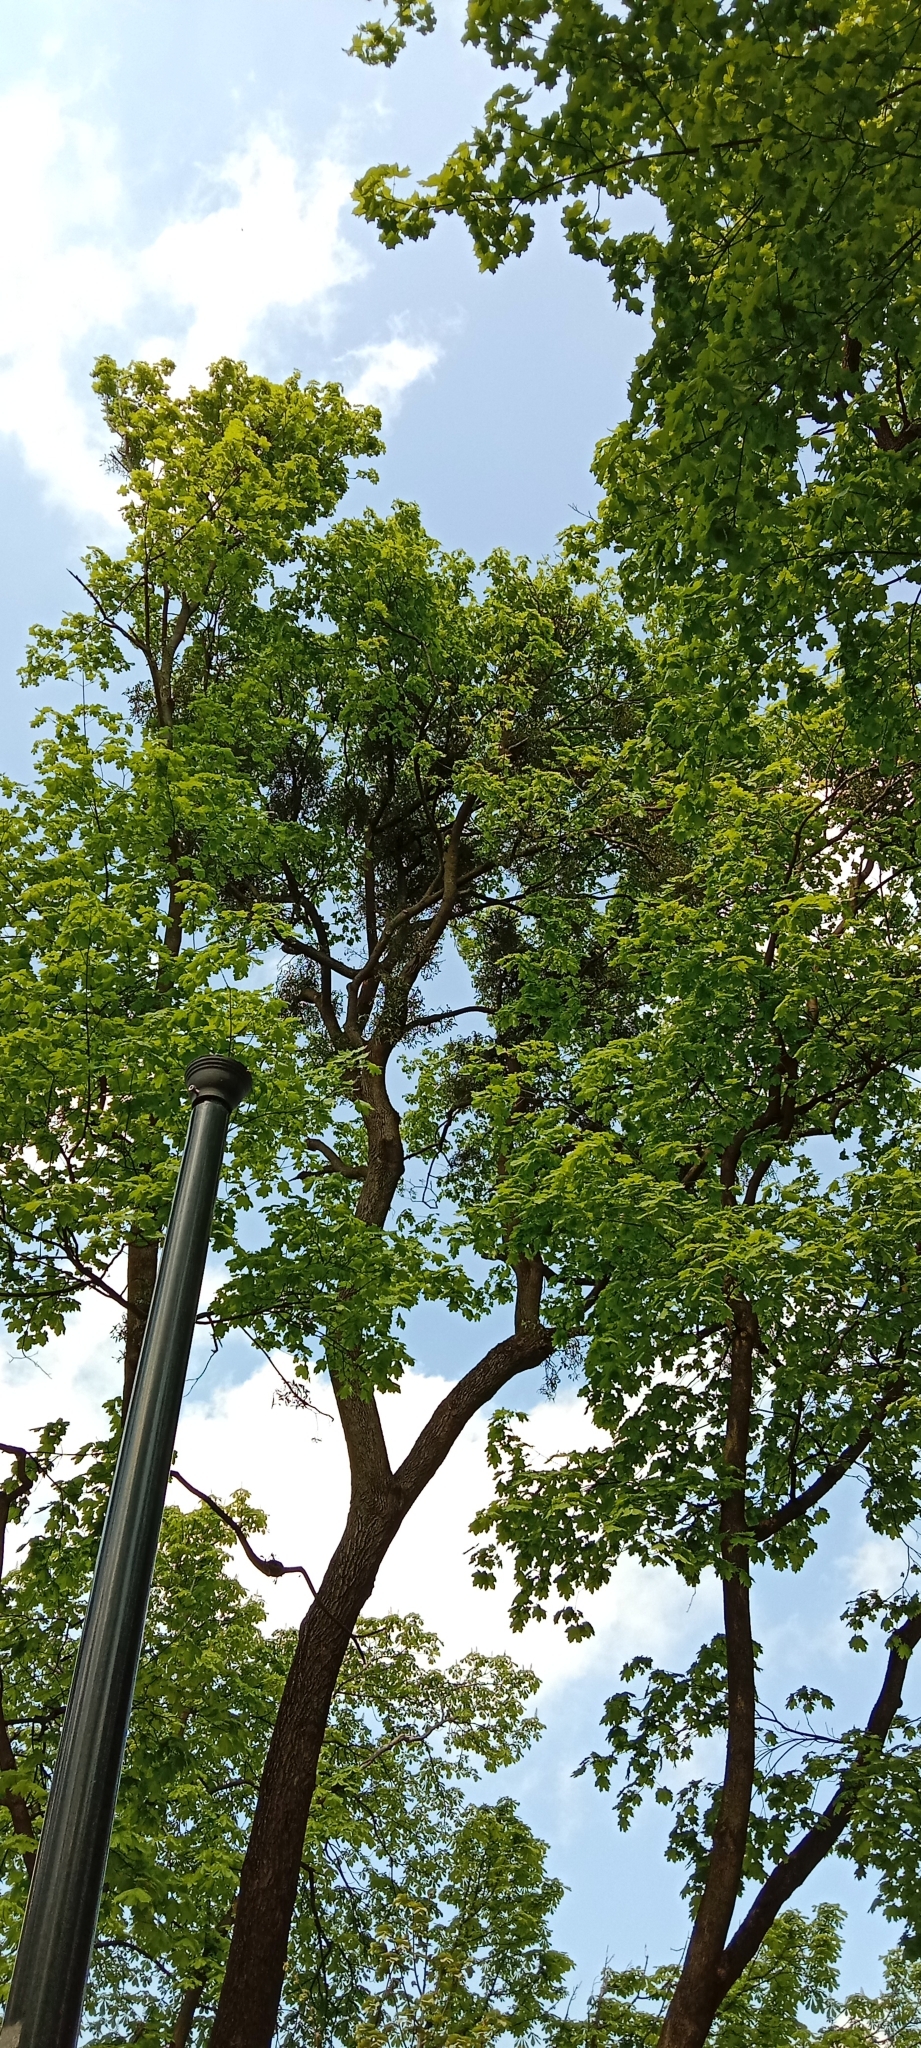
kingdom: Plantae
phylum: Tracheophyta
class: Magnoliopsida
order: Santalales
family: Viscaceae
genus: Viscum
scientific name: Viscum album
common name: Mistletoe
